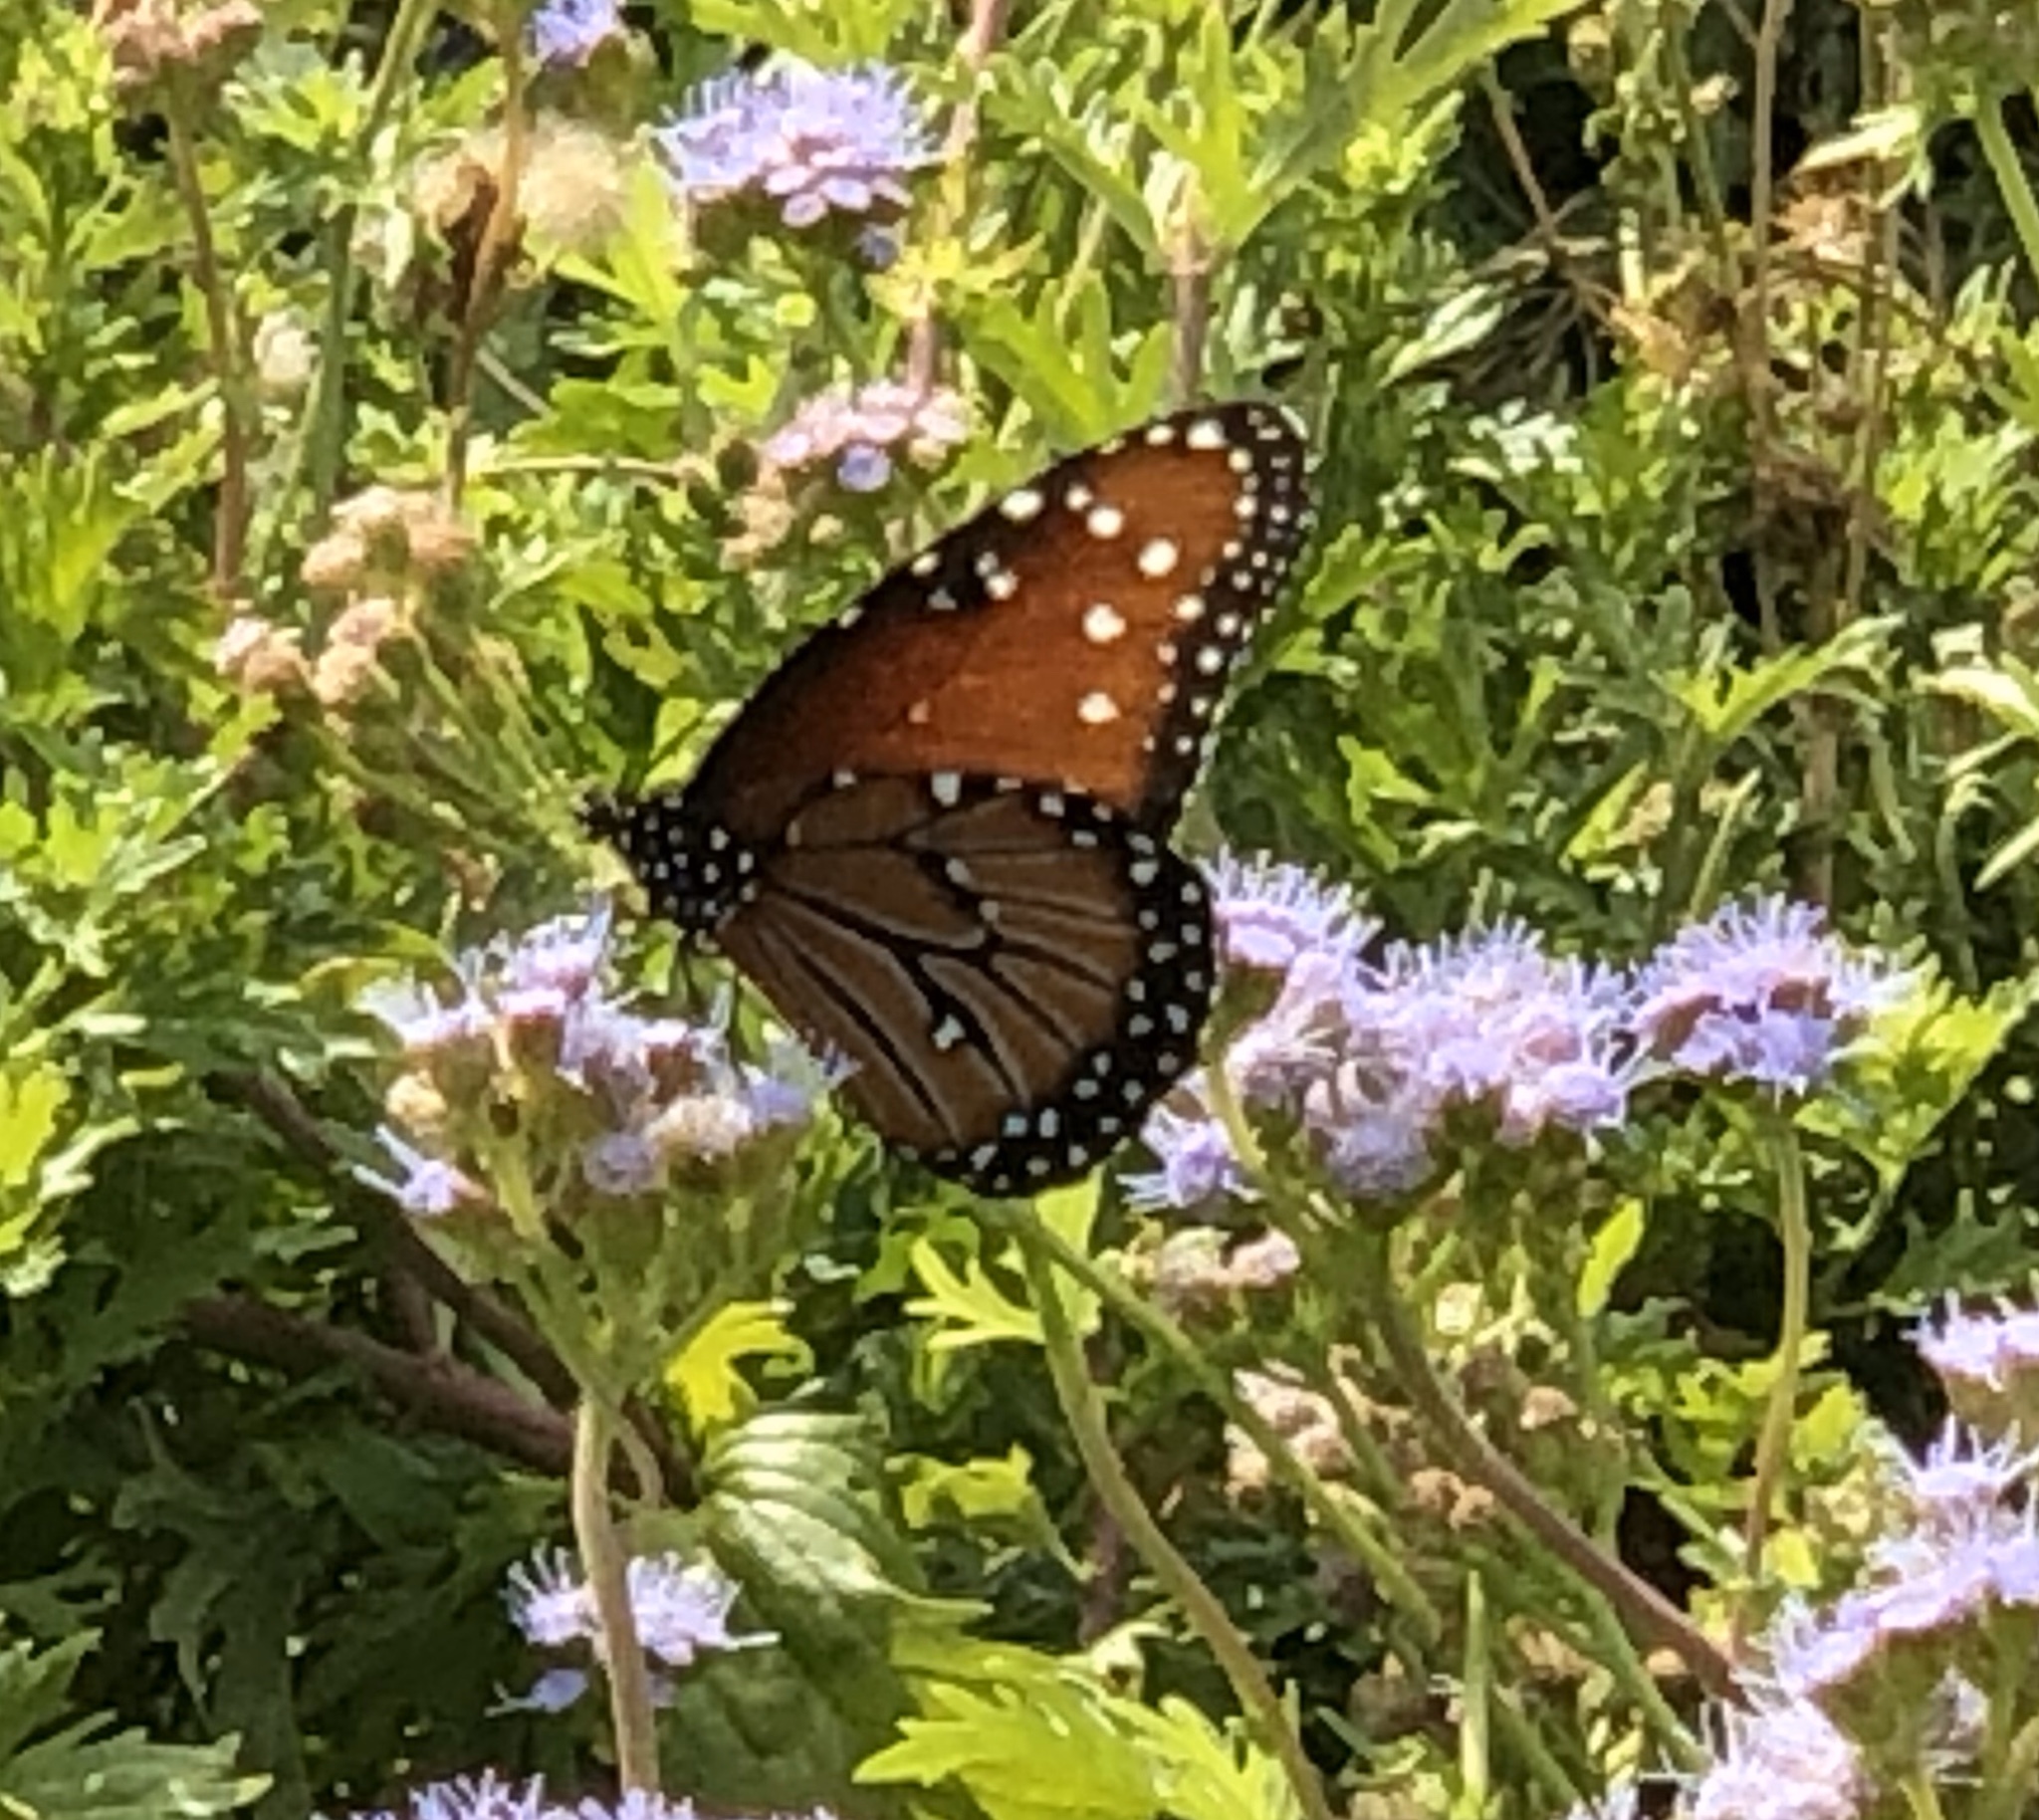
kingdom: Animalia
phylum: Arthropoda
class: Insecta
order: Lepidoptera
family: Nymphalidae
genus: Danaus
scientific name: Danaus gilippus
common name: Queen
